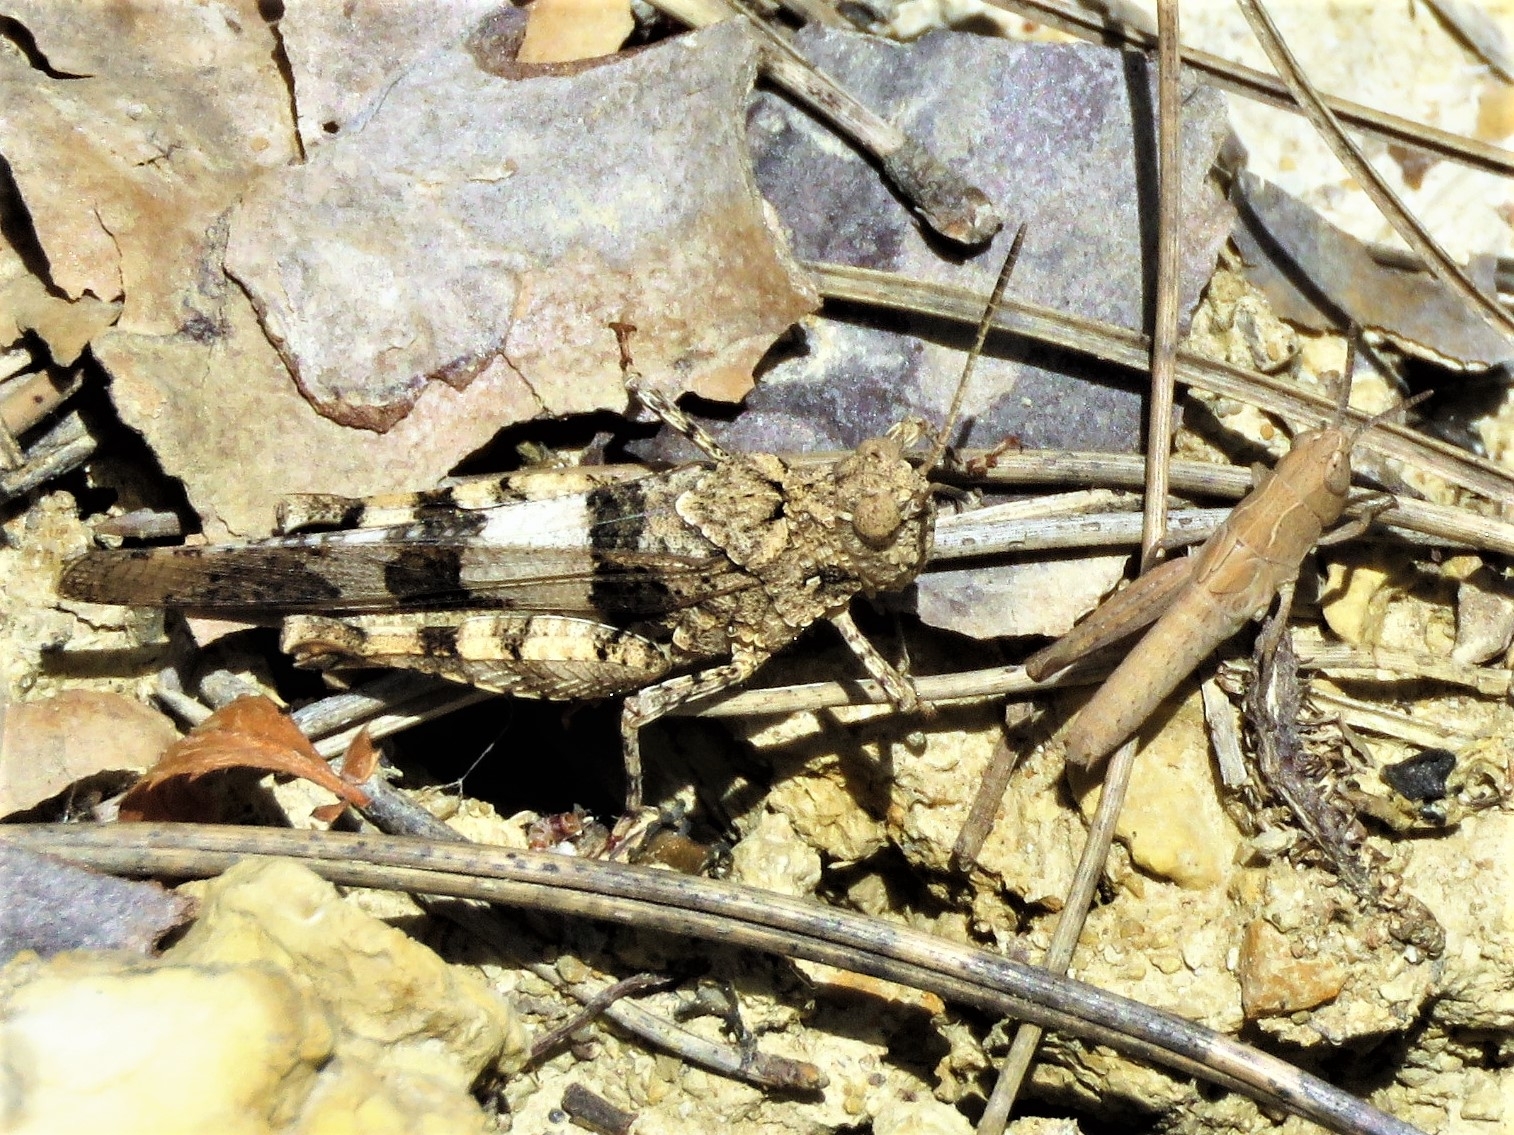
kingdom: Animalia
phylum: Arthropoda
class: Insecta
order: Orthoptera
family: Acrididae
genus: Oedipoda
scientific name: Oedipoda caerulescens
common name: Blue-winged grasshopper
